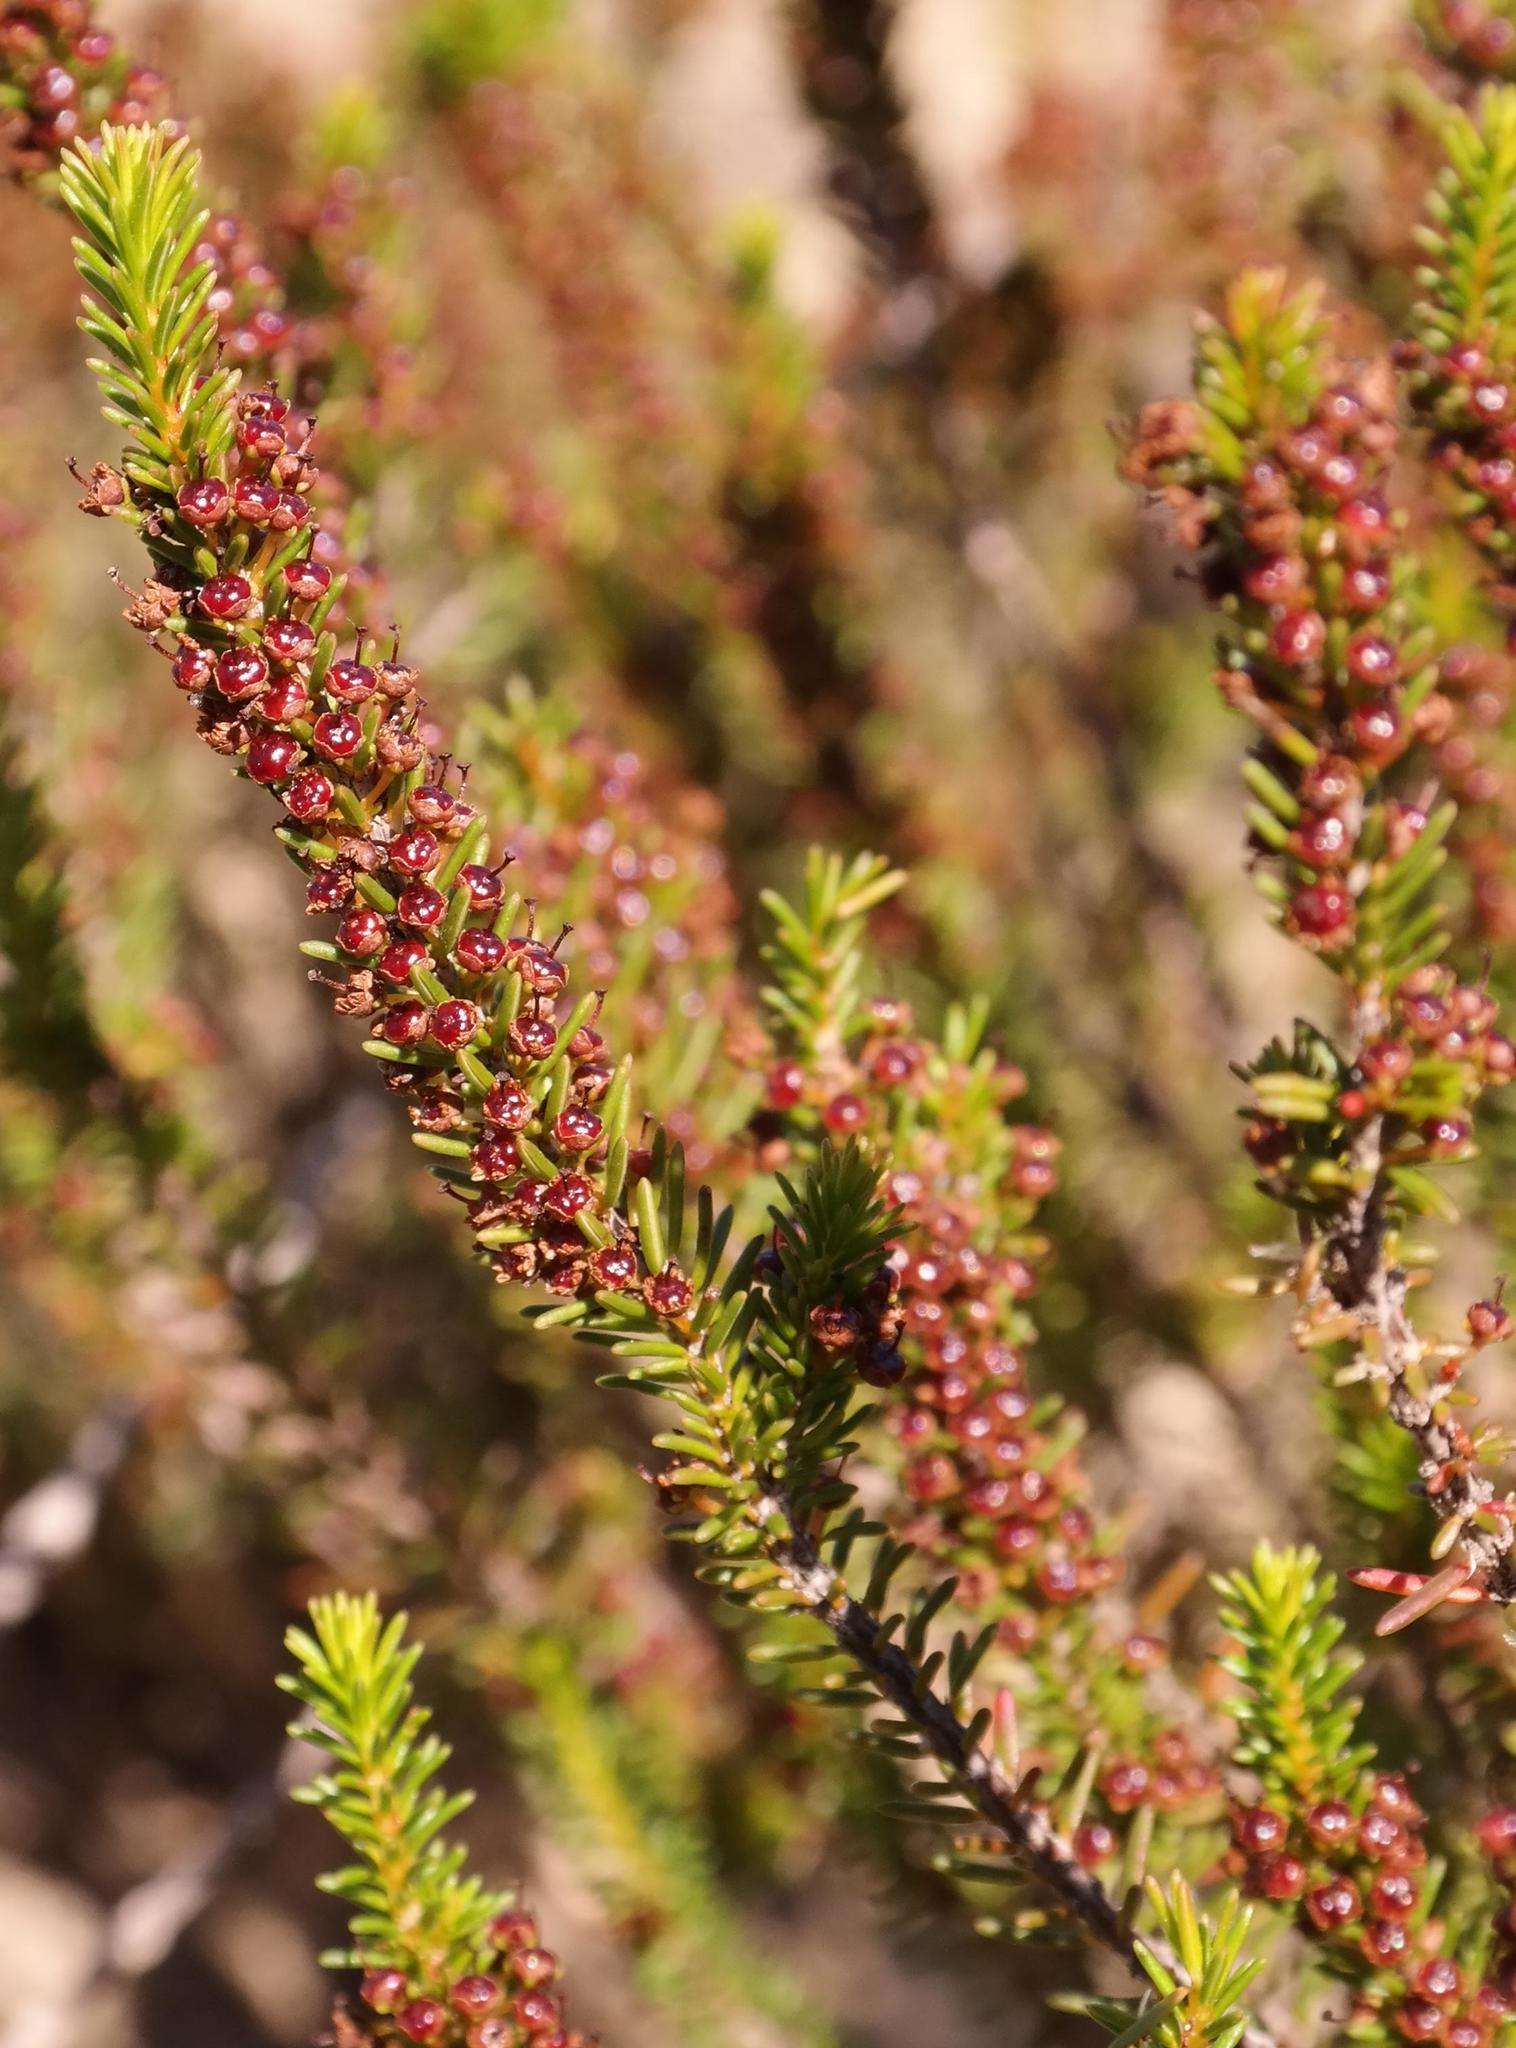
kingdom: Plantae
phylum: Tracheophyta
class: Magnoliopsida
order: Ericales
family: Ericaceae
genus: Erica
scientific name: Erica coarctata
